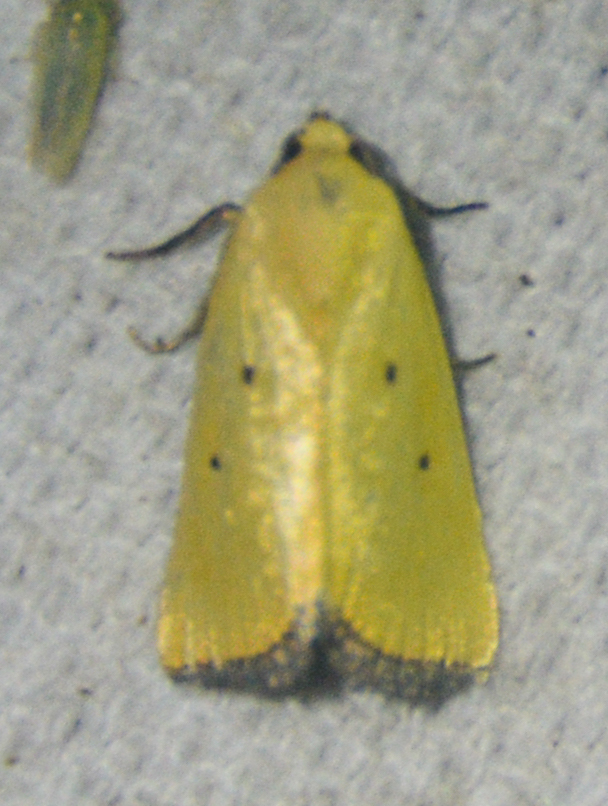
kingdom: Animalia
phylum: Arthropoda
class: Insecta
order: Lepidoptera
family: Noctuidae
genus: Marimatha
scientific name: Marimatha nigrofimbria
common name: Black-bordered lemon moth
